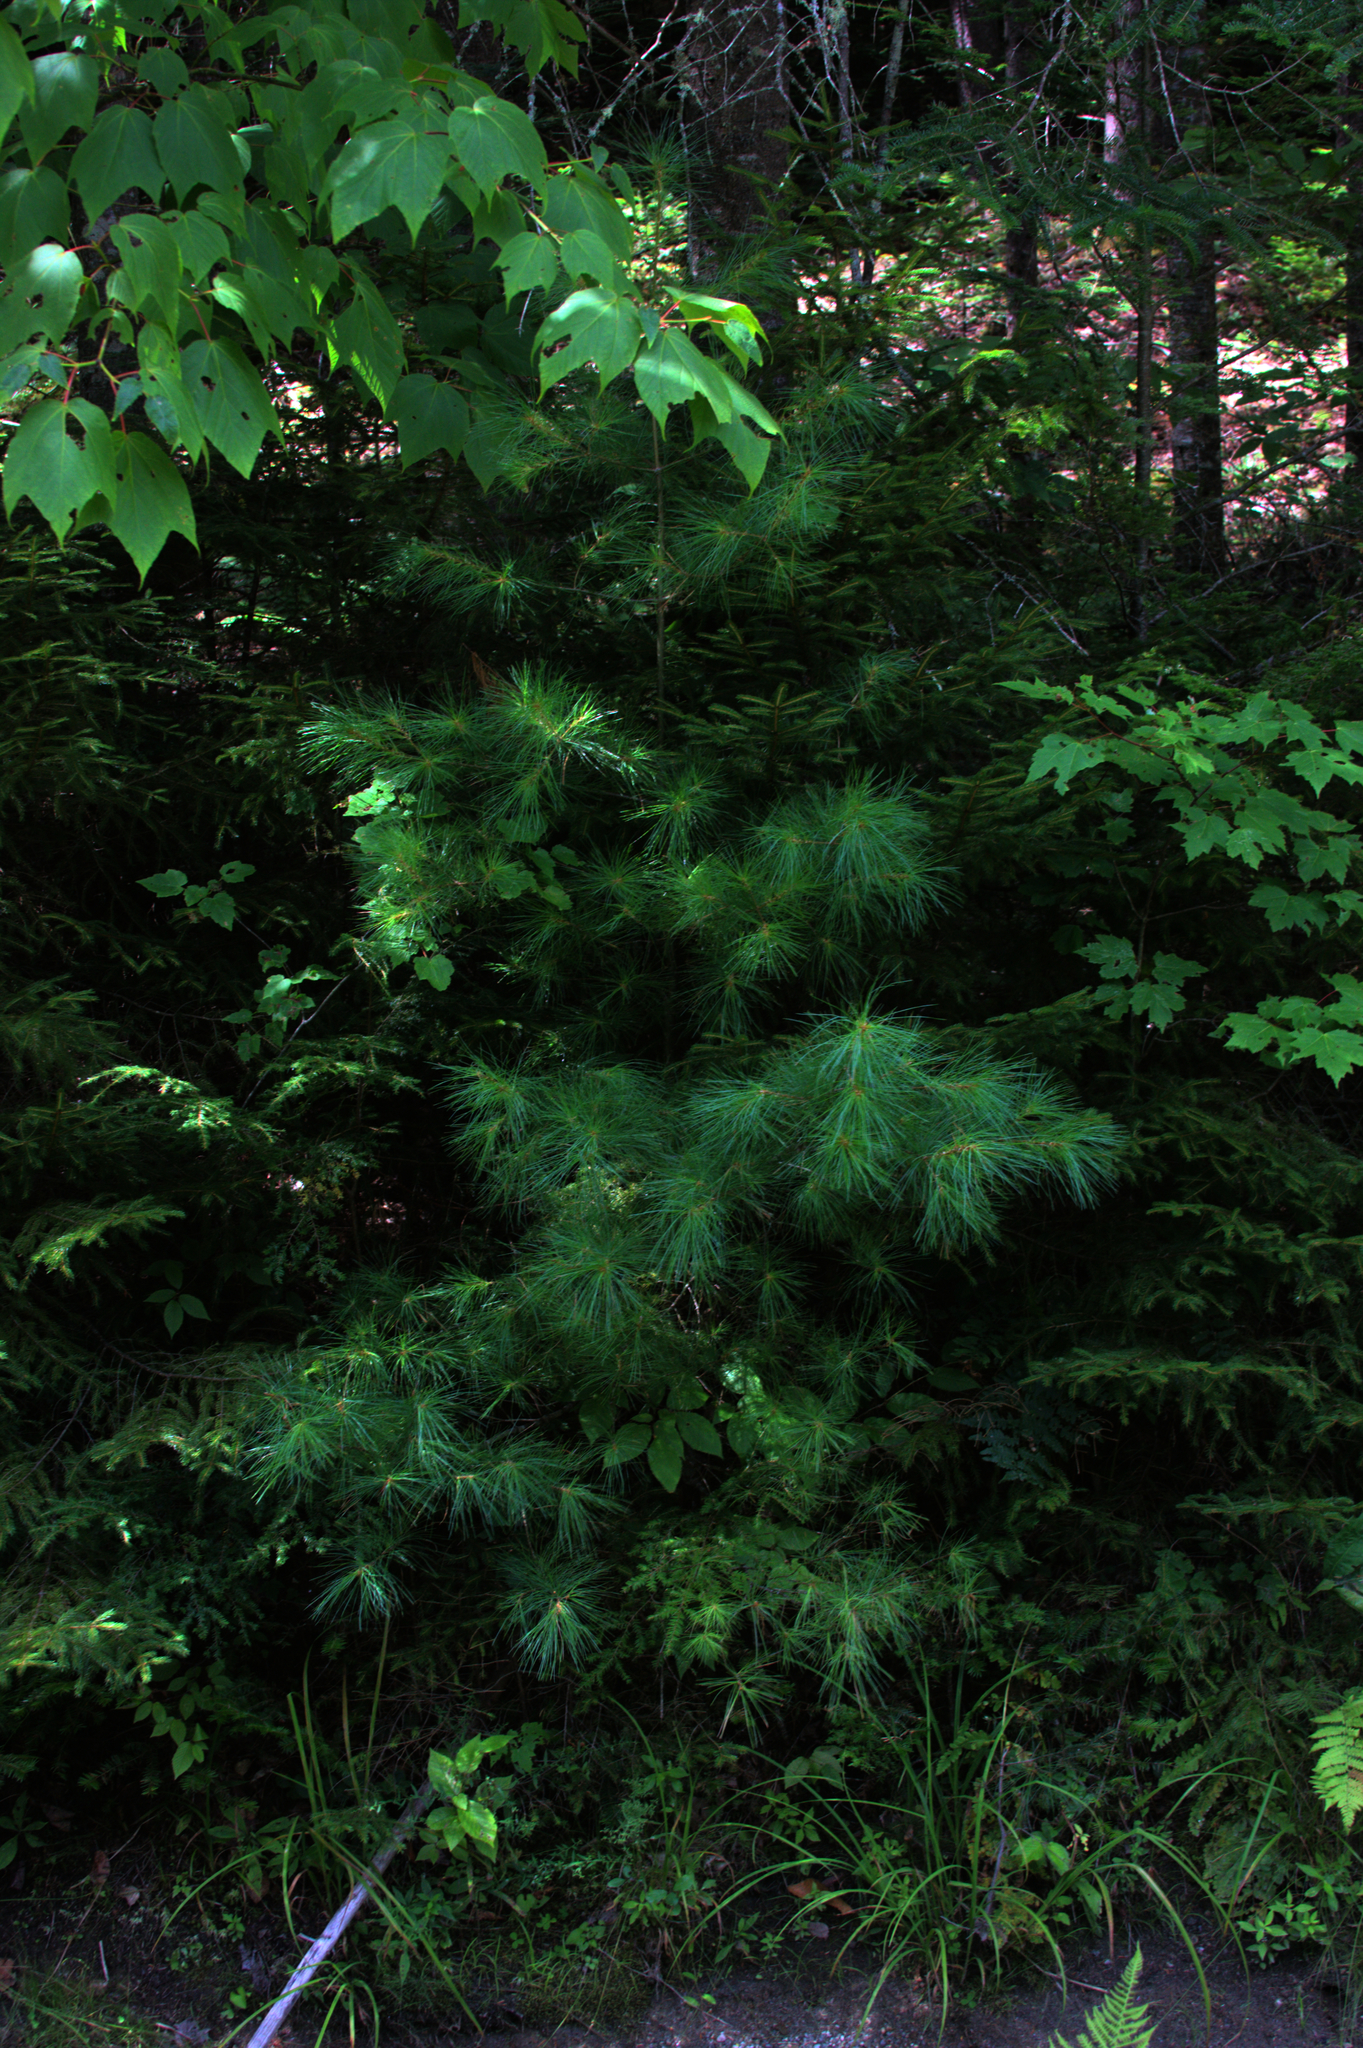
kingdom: Plantae
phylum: Tracheophyta
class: Magnoliopsida
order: Sapindales
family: Sapindaceae
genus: Acer
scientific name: Acer pensylvanicum
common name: Moosewood
